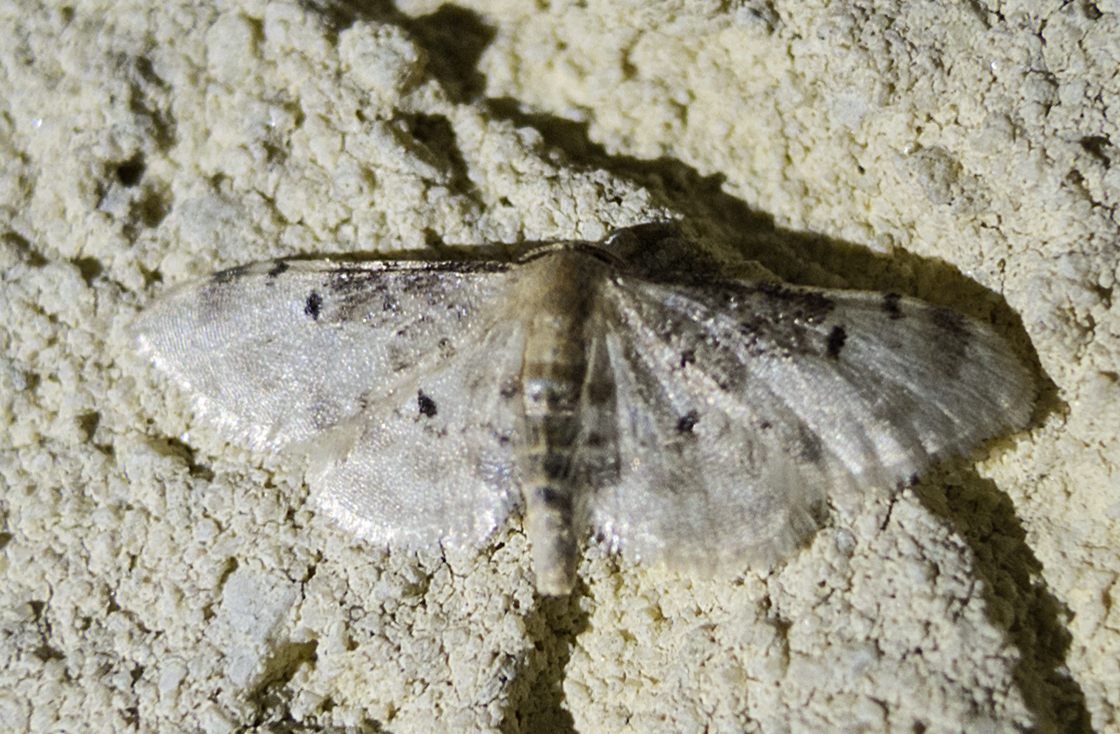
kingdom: Animalia
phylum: Arthropoda
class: Insecta
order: Lepidoptera
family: Geometridae
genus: Idaea
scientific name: Idaea filicata
